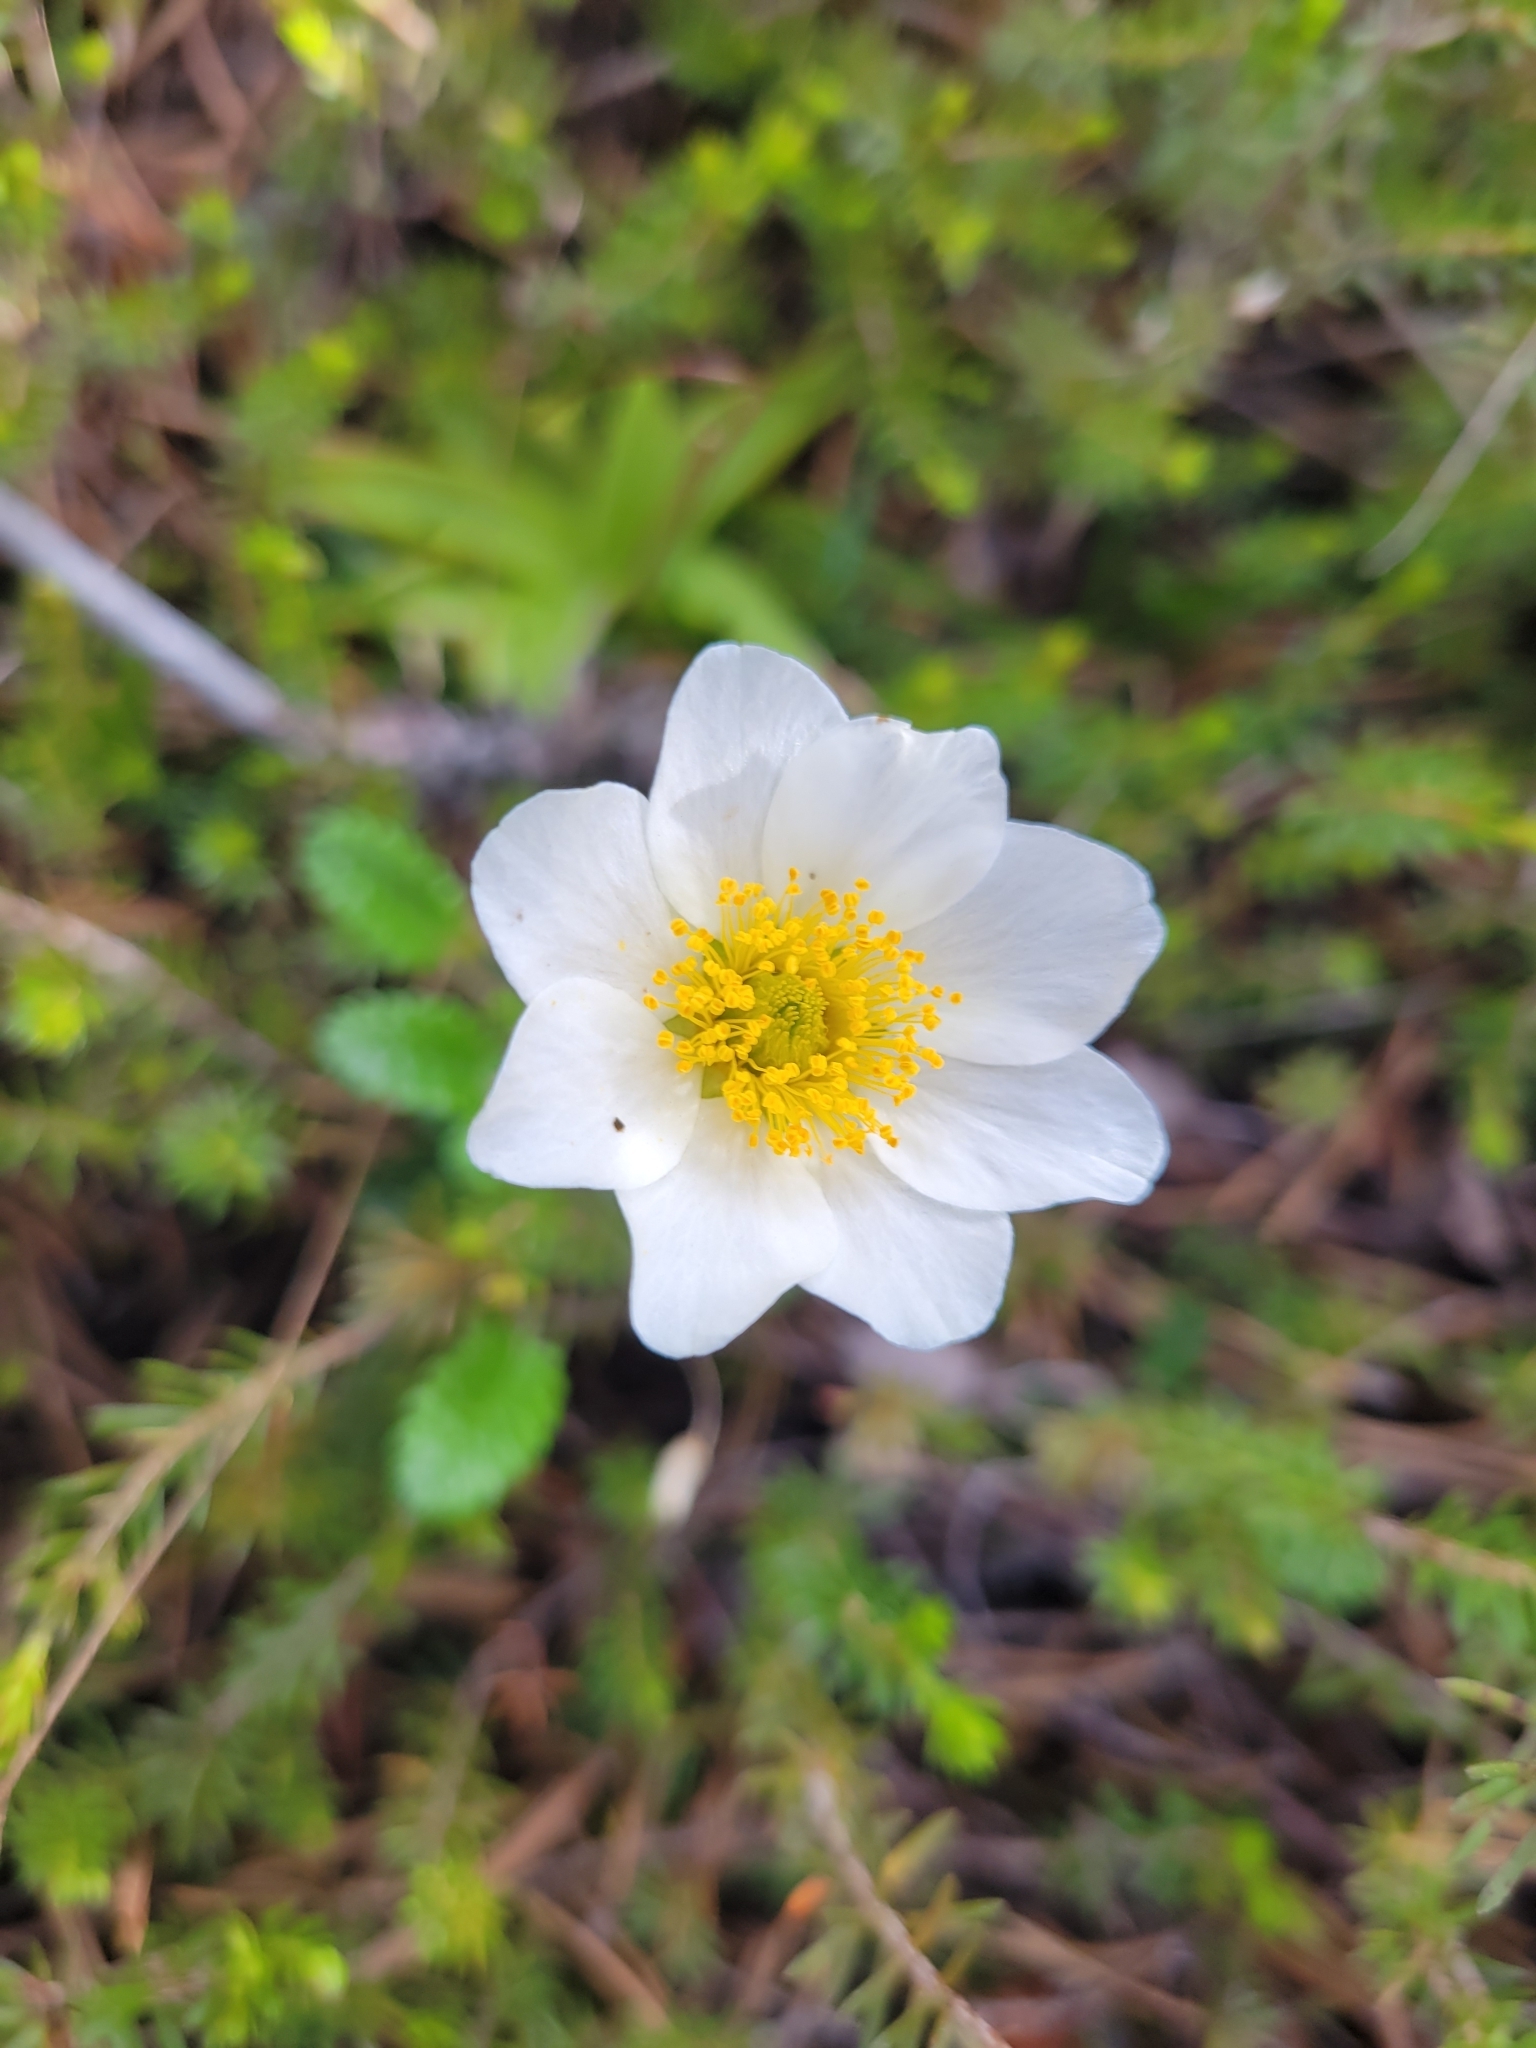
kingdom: Plantae
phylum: Tracheophyta
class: Magnoliopsida
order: Rosales
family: Rosaceae
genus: Dryas
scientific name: Dryas octopetala
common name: Eight-petal mountain-avens
